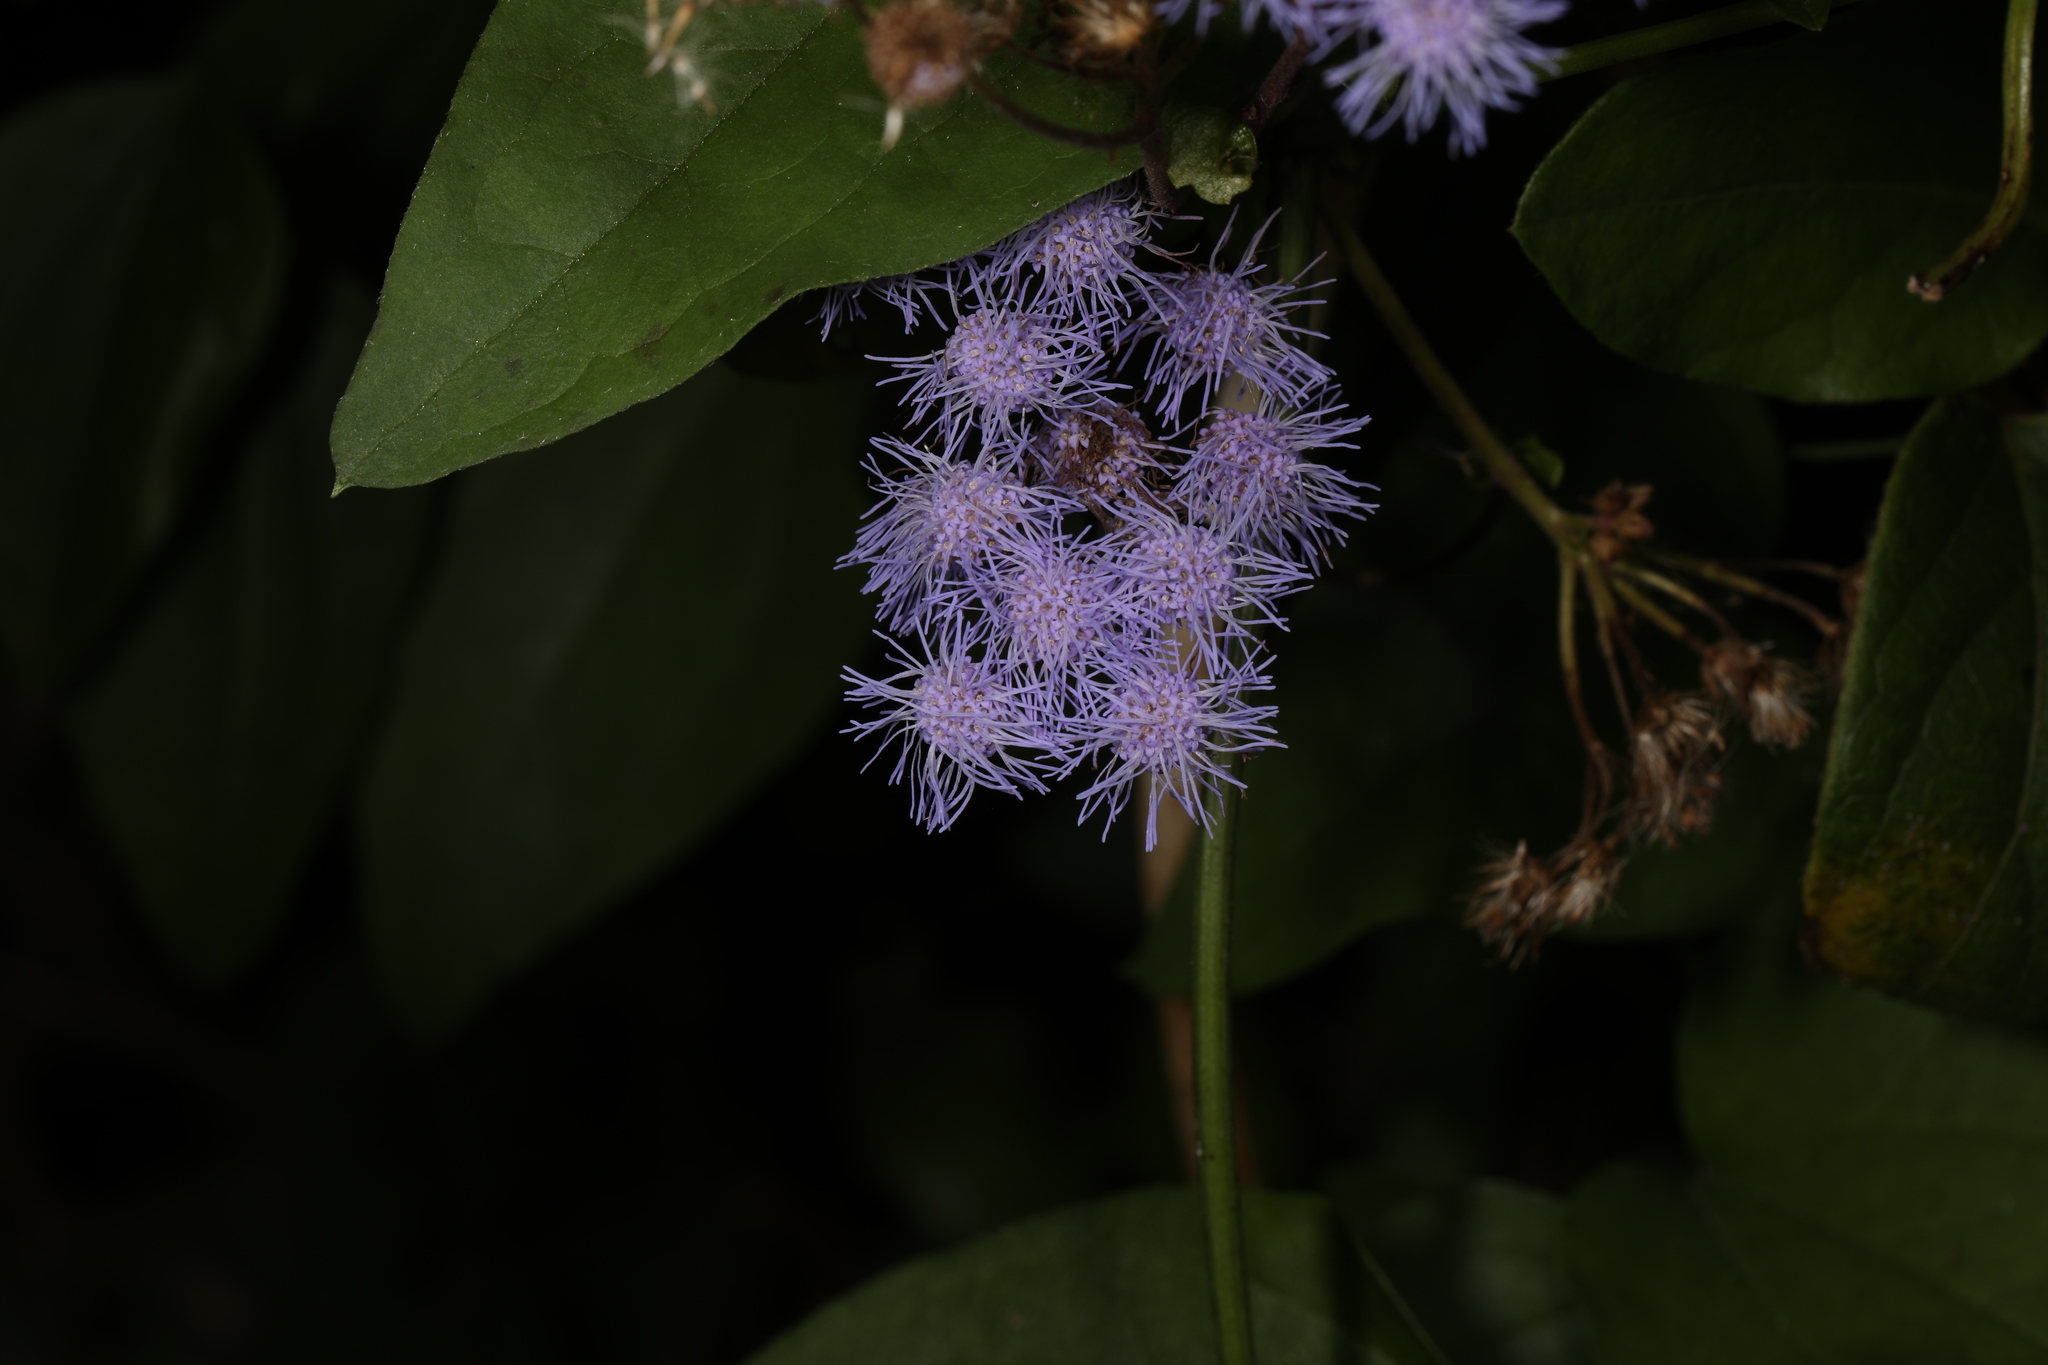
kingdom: Plantae
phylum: Tracheophyta
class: Magnoliopsida
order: Asterales
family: Asteraceae
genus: Conoclinium
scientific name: Conoclinium coelestinum
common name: Blue mistflower
